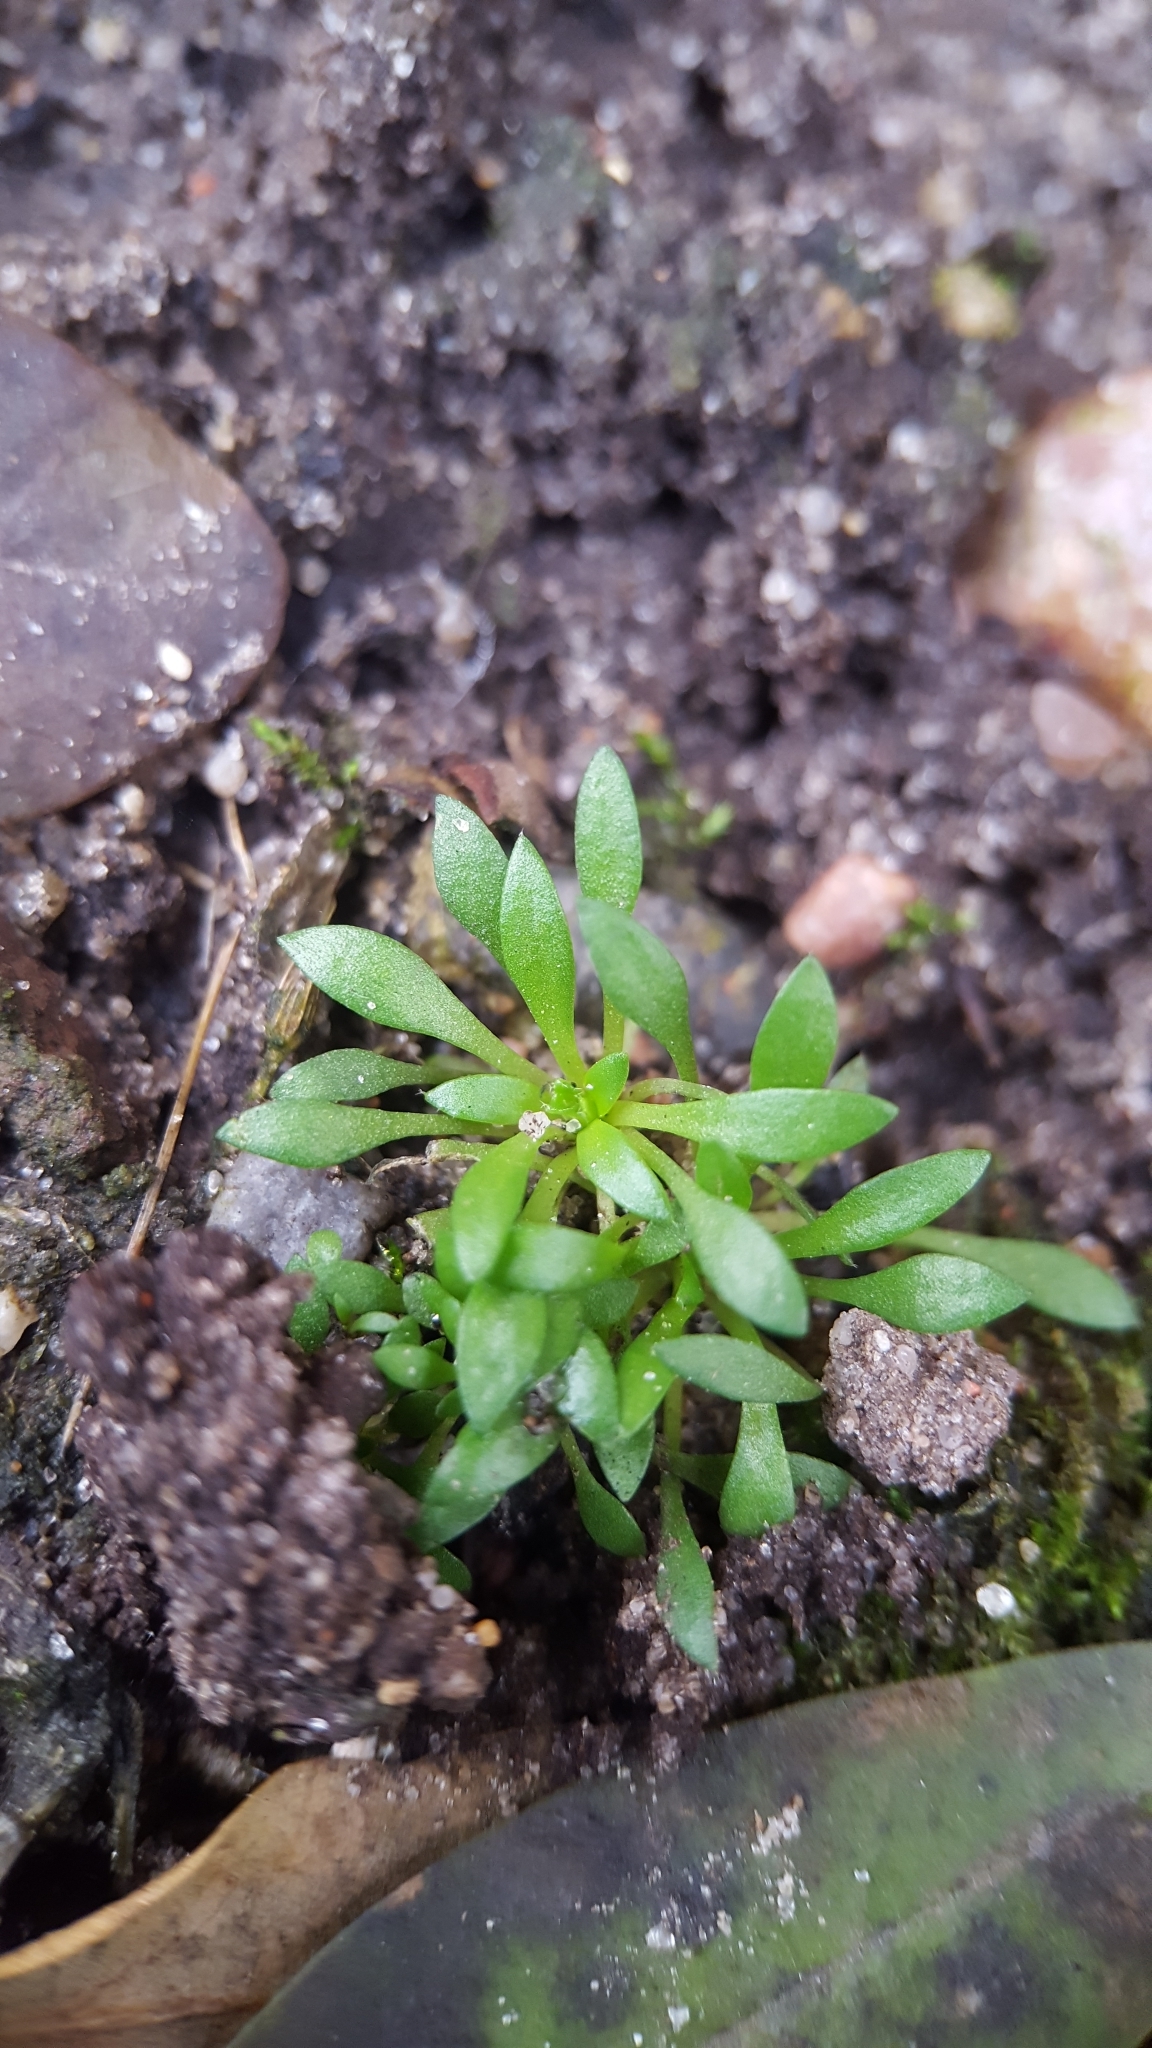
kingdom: Plantae
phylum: Tracheophyta
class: Magnoliopsida
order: Brassicales
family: Brassicaceae
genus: Draba
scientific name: Draba verna
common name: Spring draba
